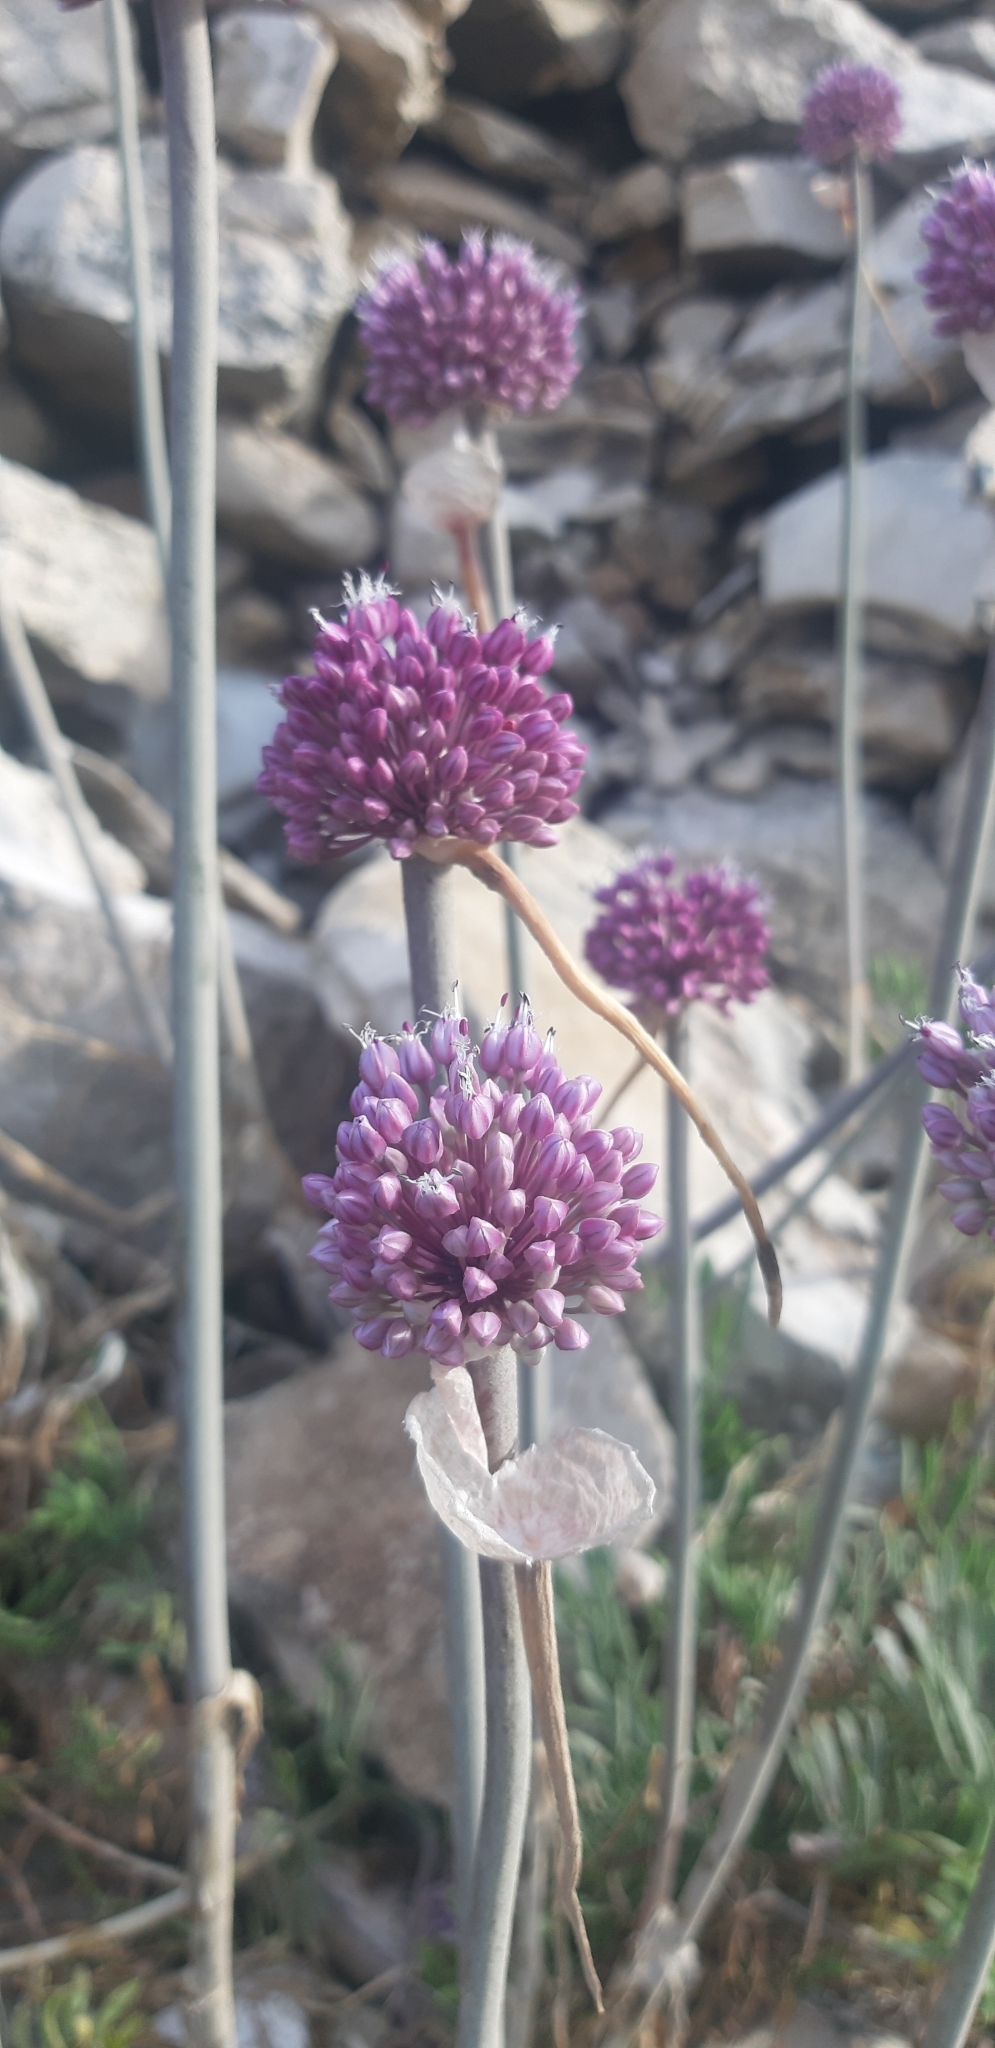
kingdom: Plantae
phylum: Tracheophyta
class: Liliopsida
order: Asparagales
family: Amaryllidaceae
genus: Allium
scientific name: Allium commutatum
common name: Sea garlic
